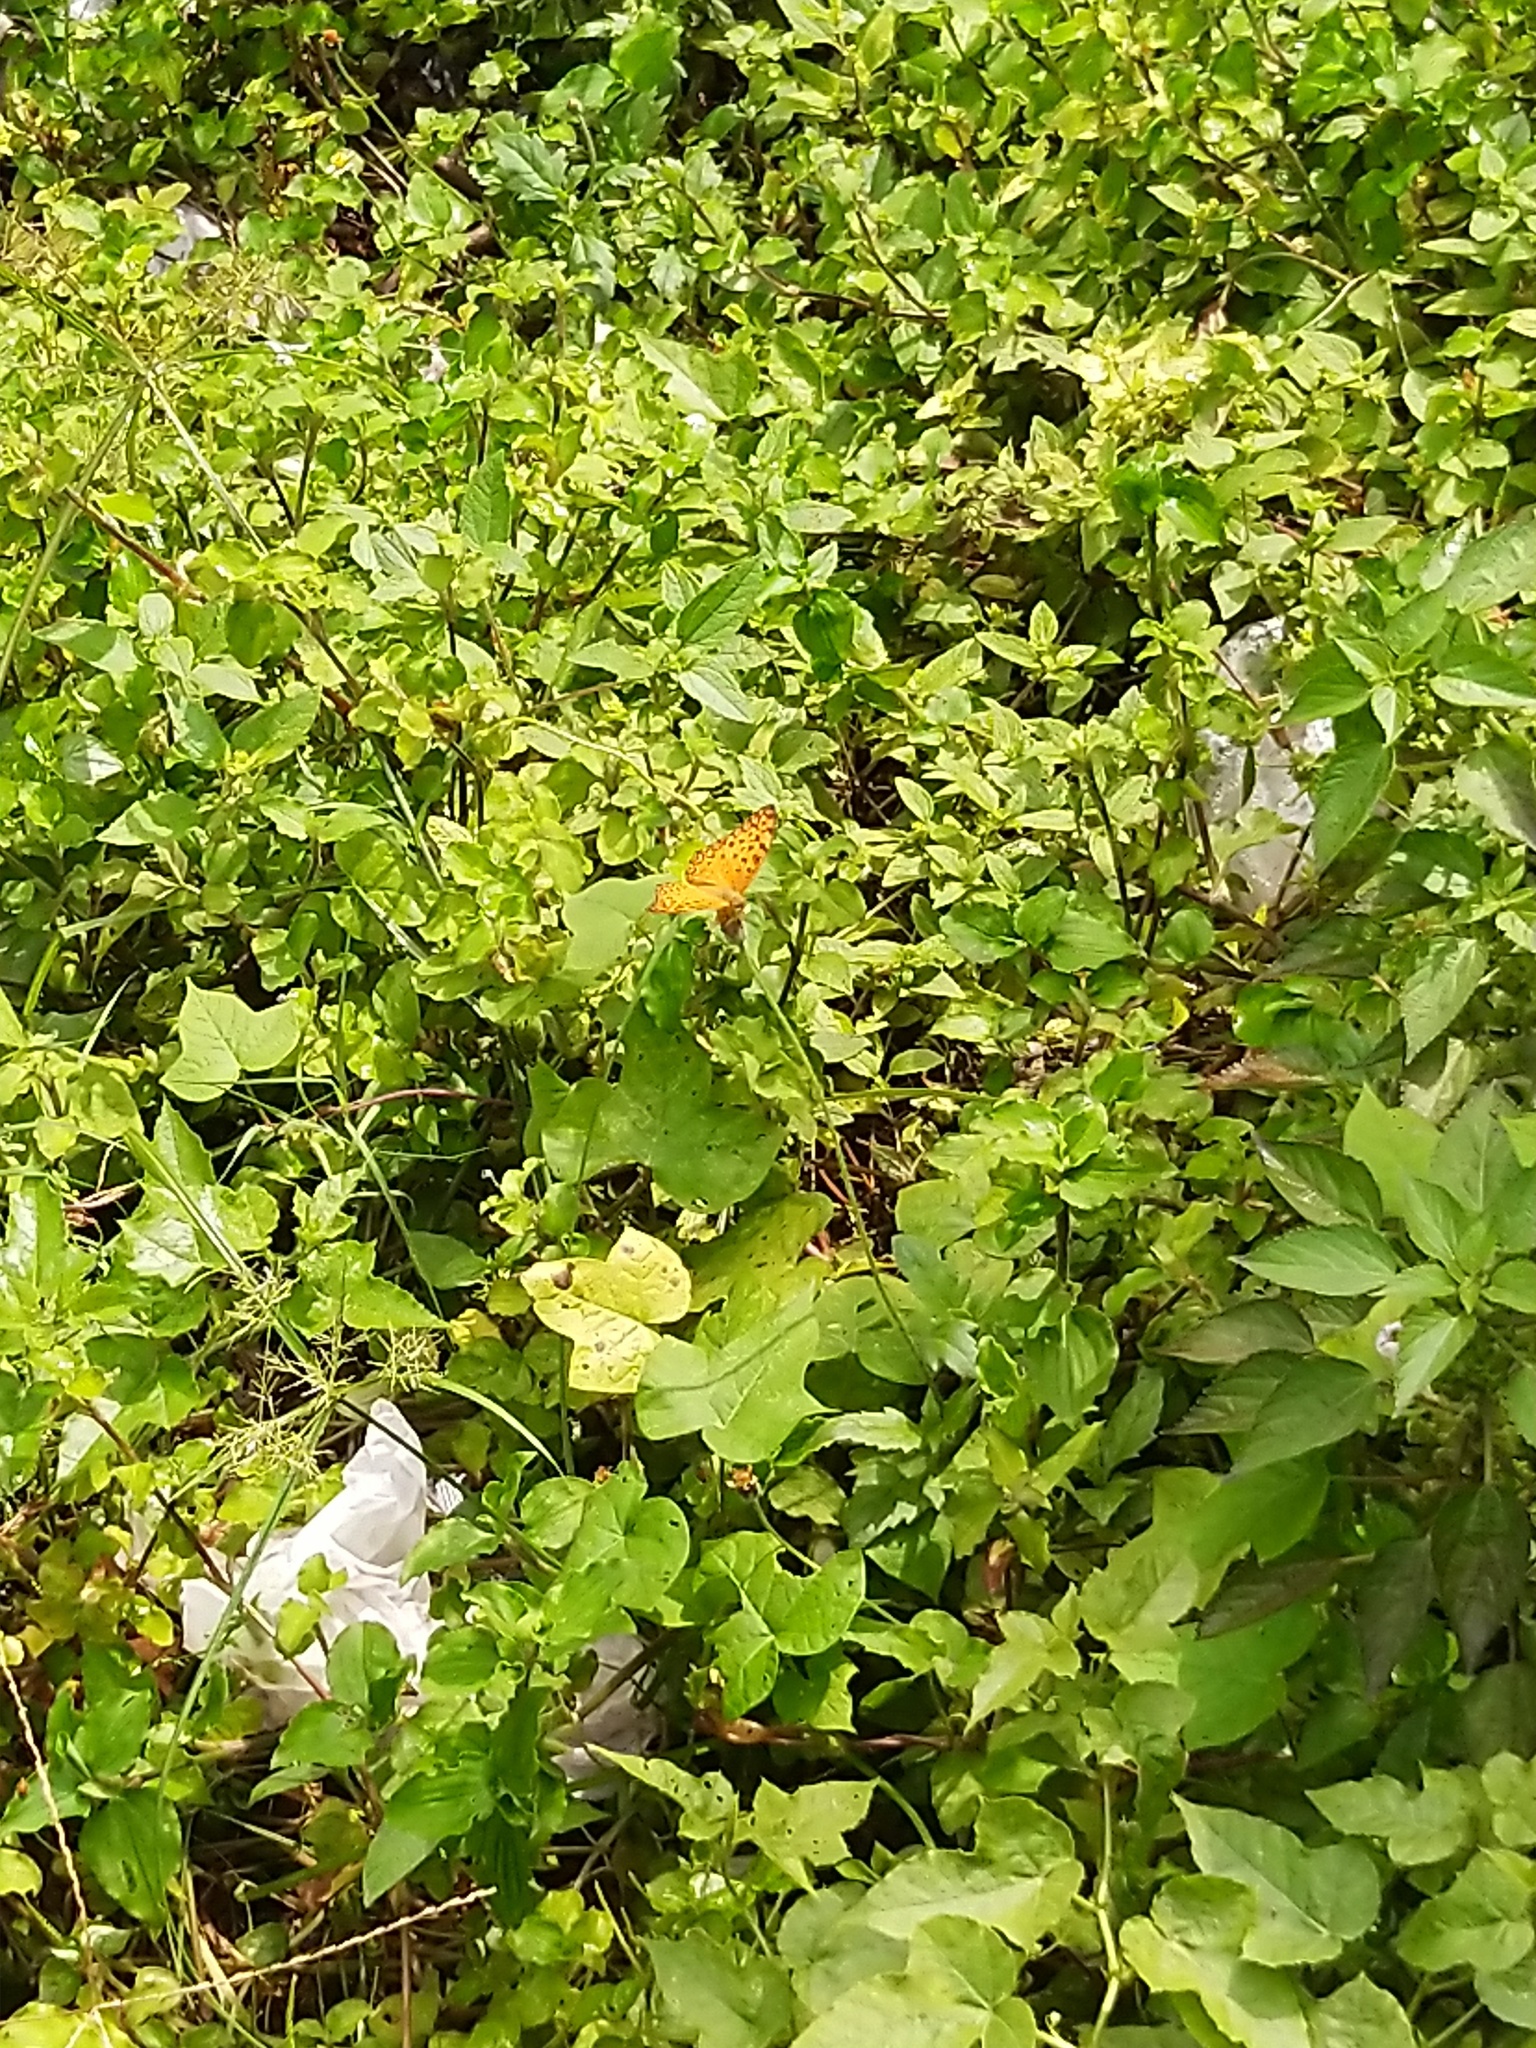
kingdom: Animalia
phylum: Arthropoda
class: Insecta
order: Lepidoptera
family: Nymphalidae
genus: Phalanta
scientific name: Phalanta phalantha
